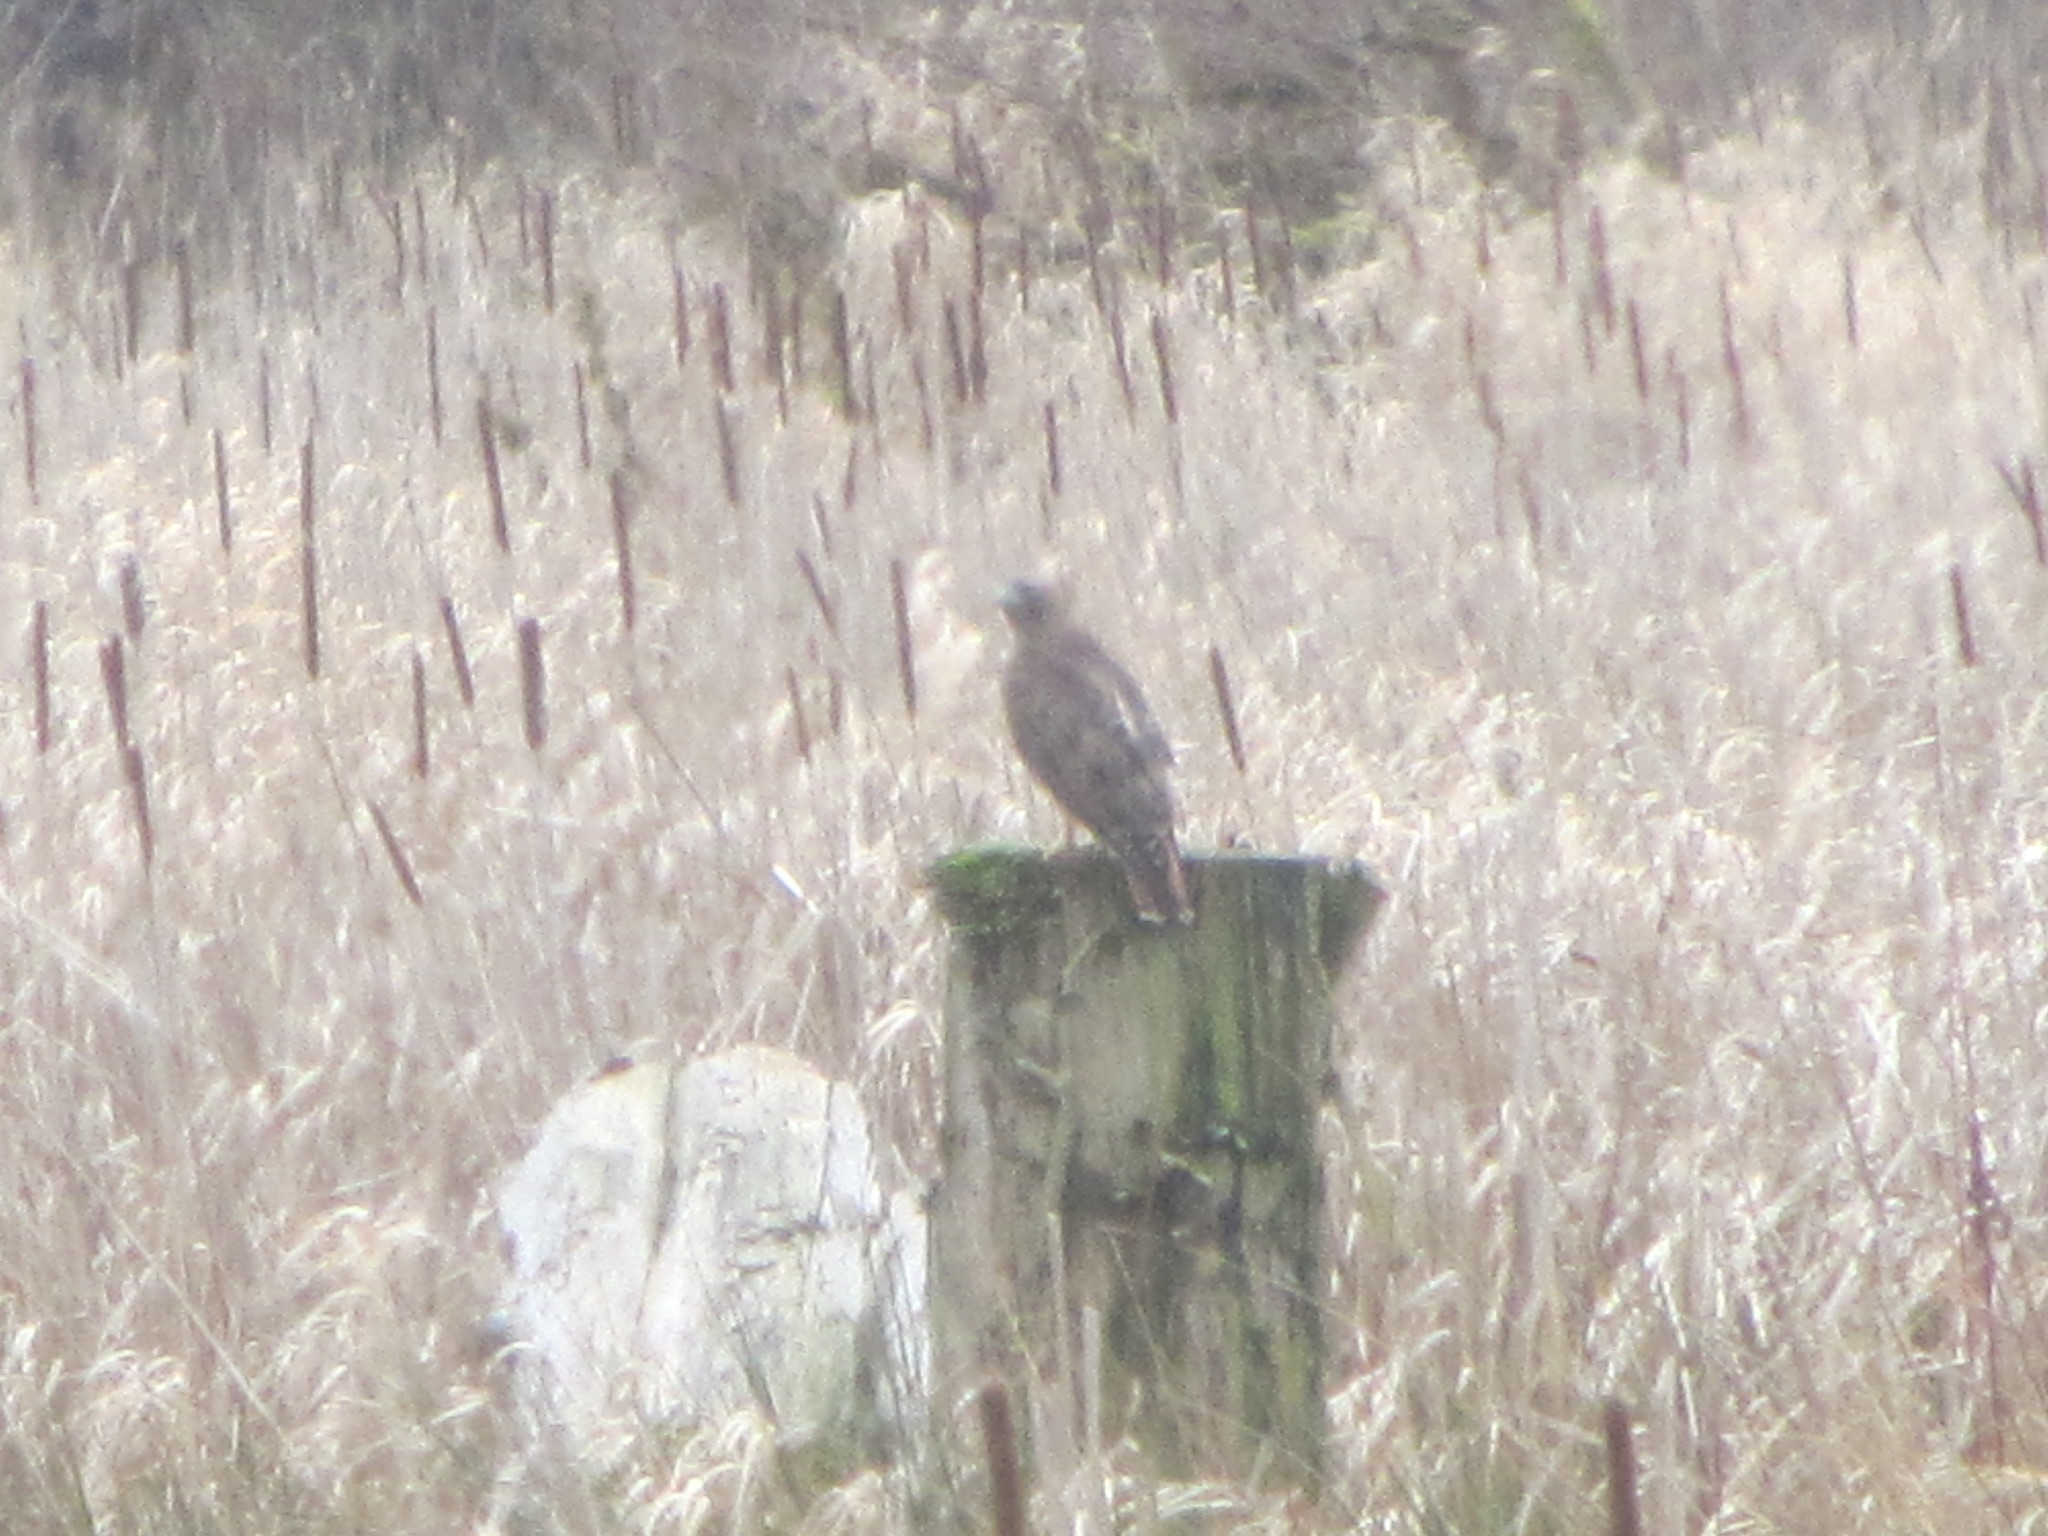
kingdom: Animalia
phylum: Chordata
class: Aves
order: Accipitriformes
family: Accipitridae
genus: Buteo
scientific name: Buteo jamaicensis
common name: Red-tailed hawk
